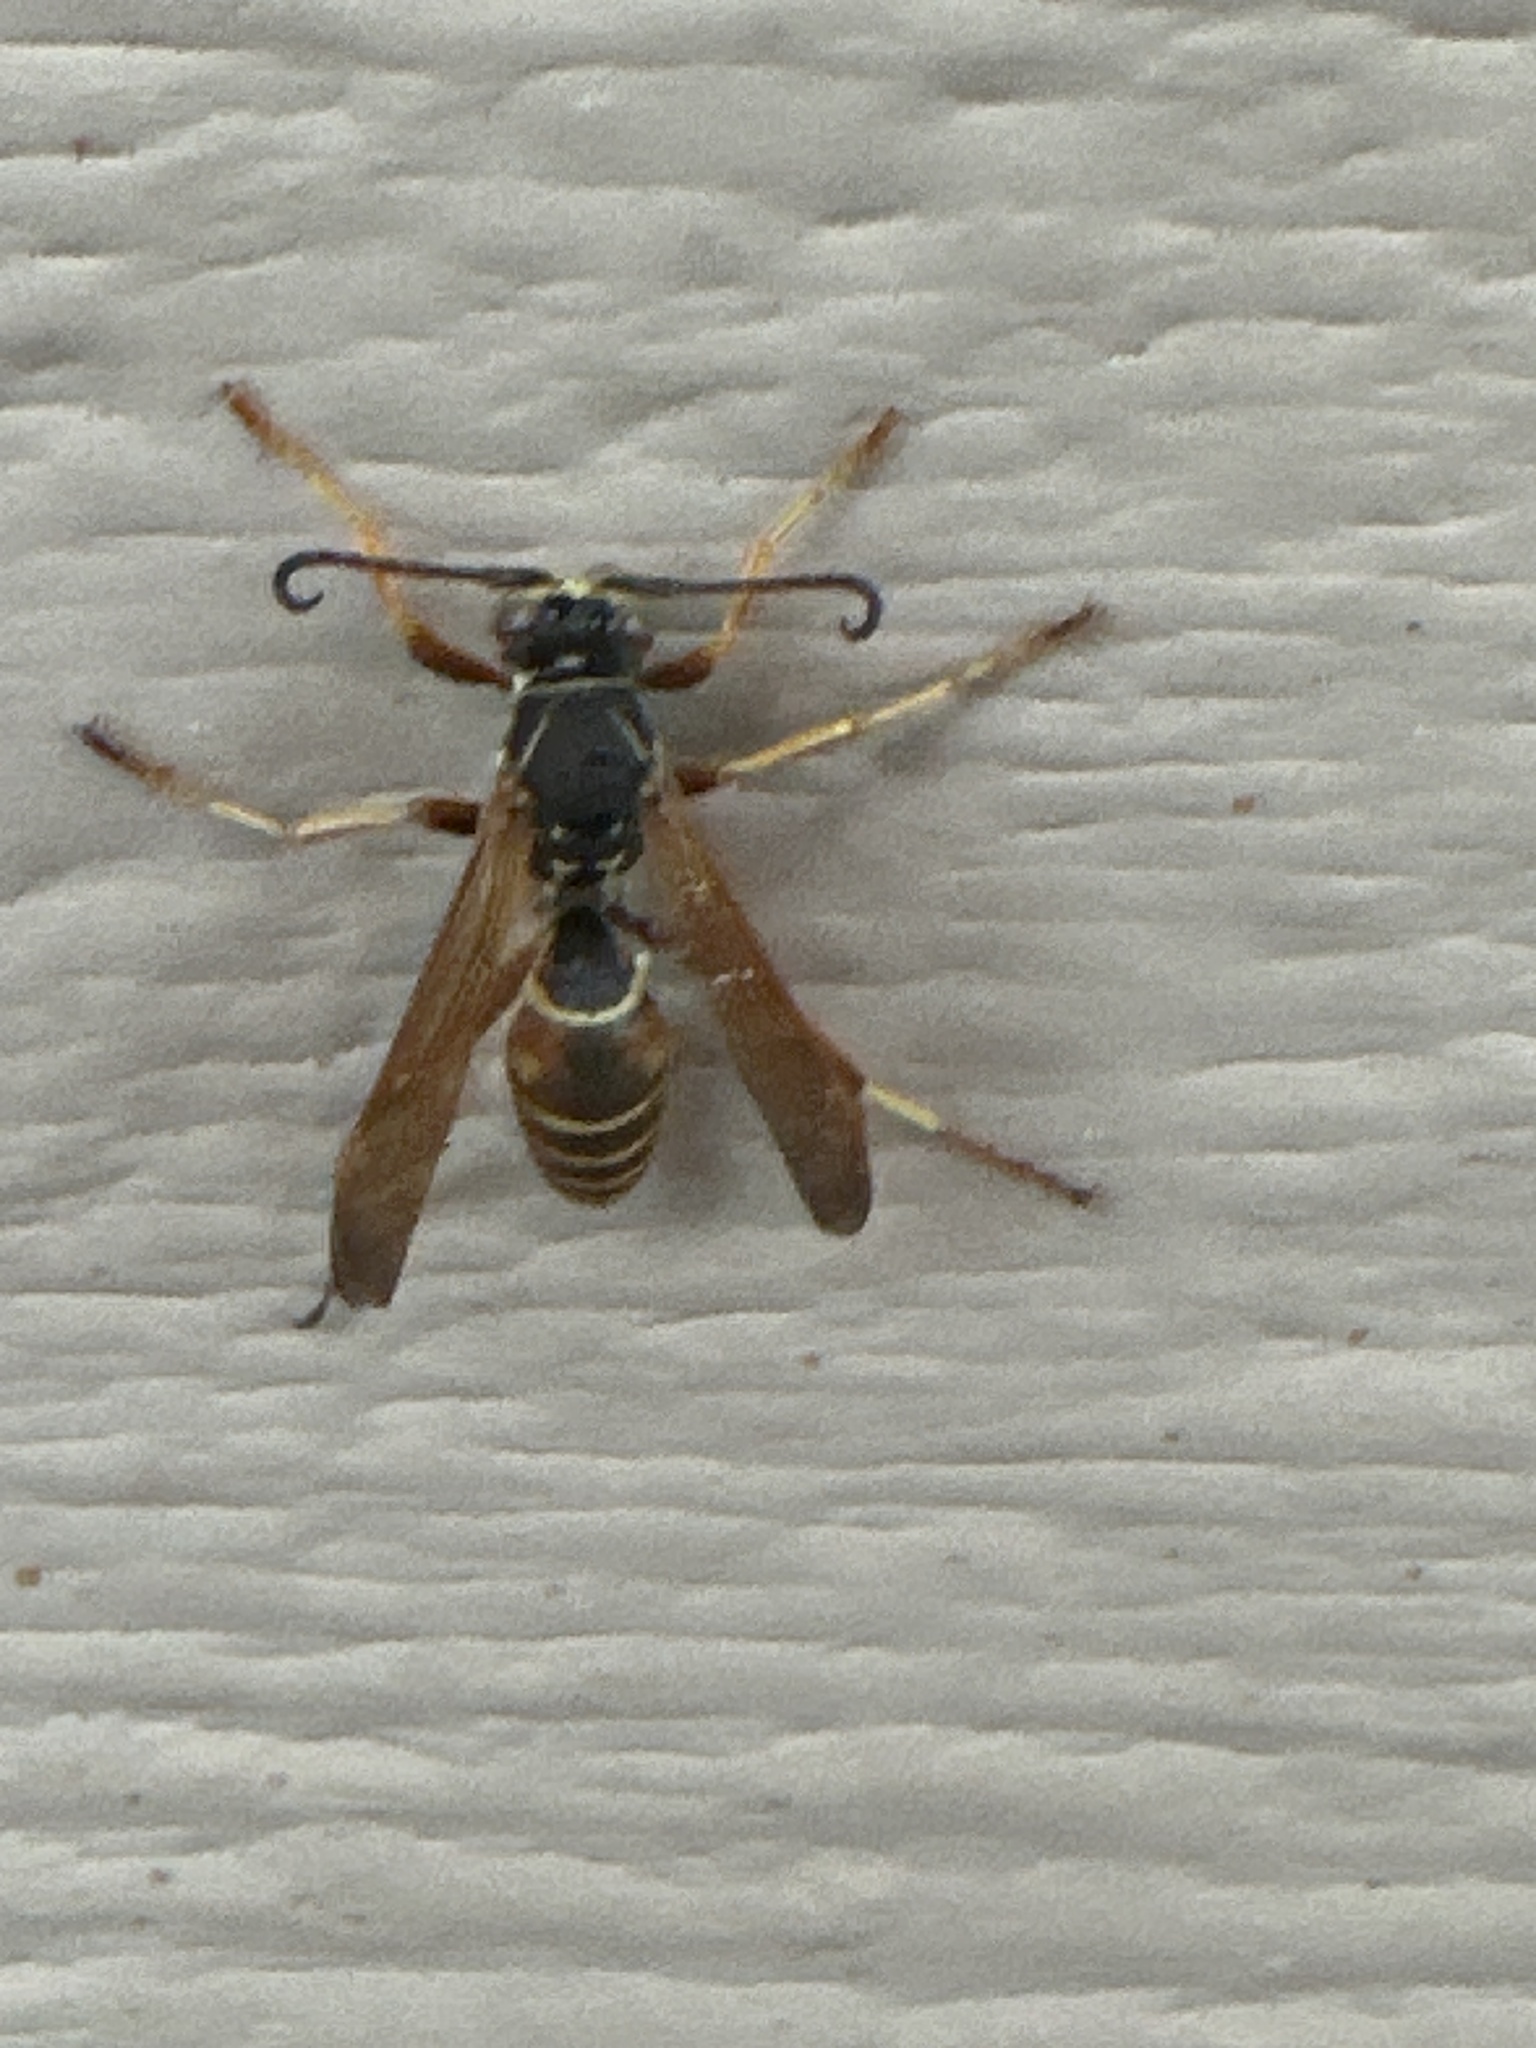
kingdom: Animalia
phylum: Arthropoda
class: Insecta
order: Hymenoptera
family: Eumenidae
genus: Polistes
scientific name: Polistes fuscatus
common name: Dark paper wasp
